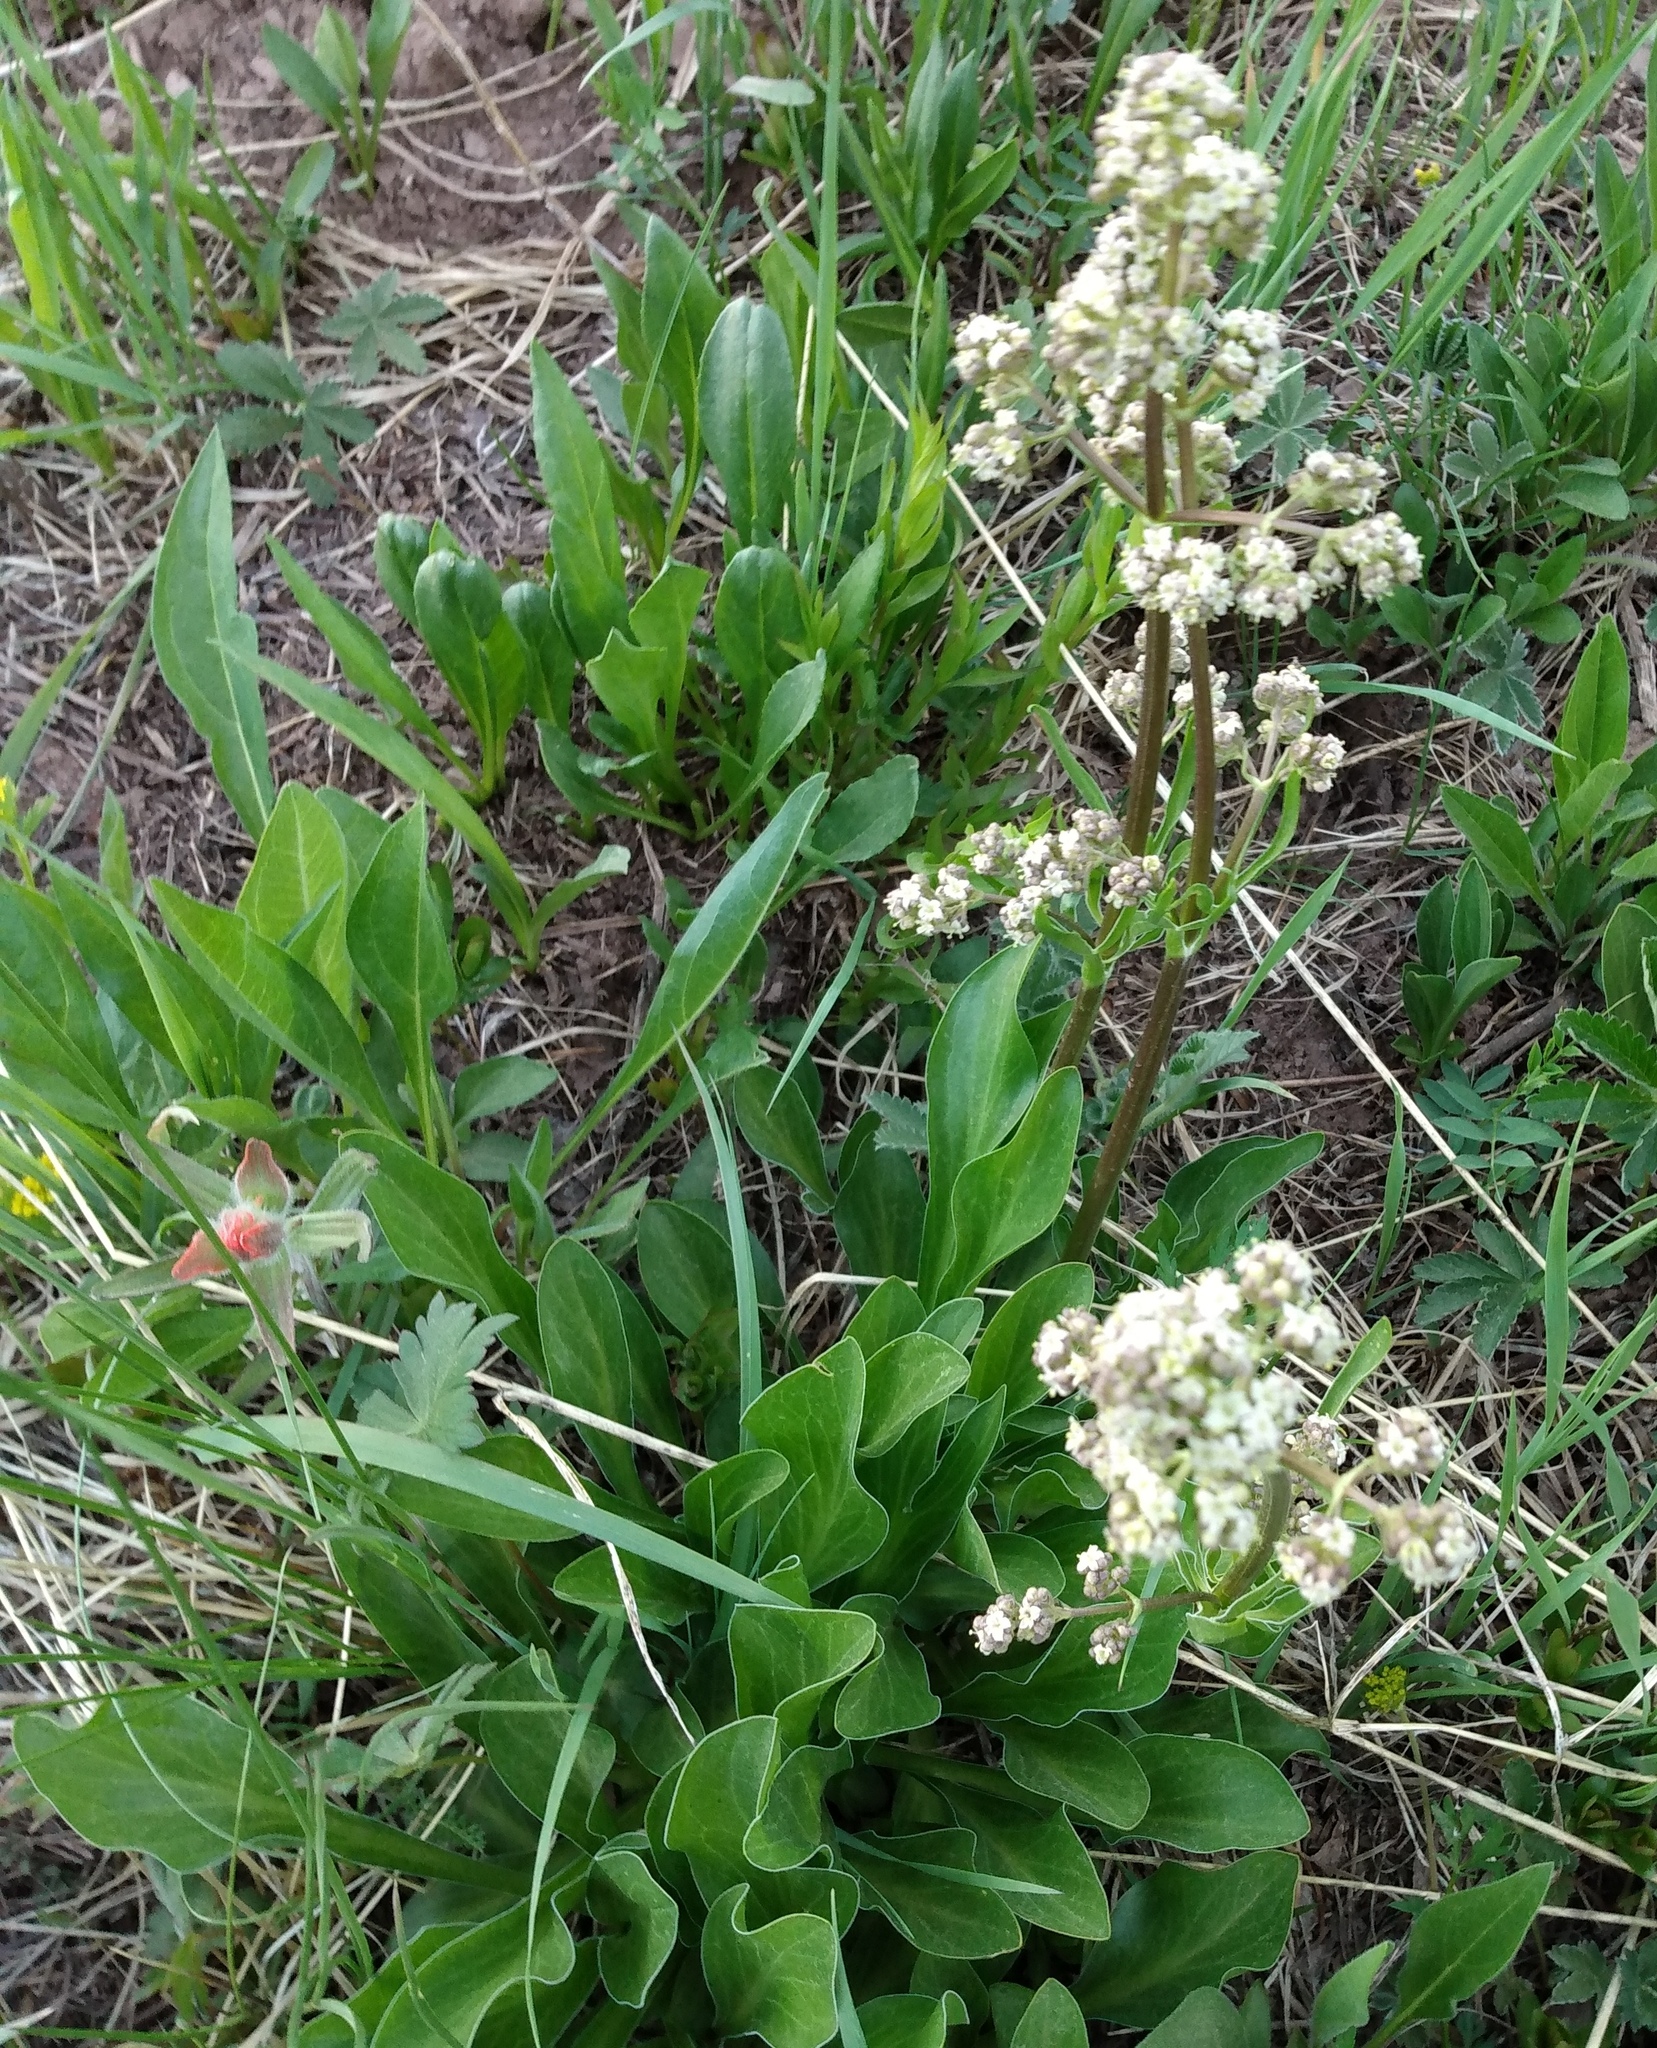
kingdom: Plantae
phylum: Tracheophyta
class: Magnoliopsida
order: Dipsacales
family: Caprifoliaceae
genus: Valeriana
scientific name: Valeriana edulis
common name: Taproot valerian
